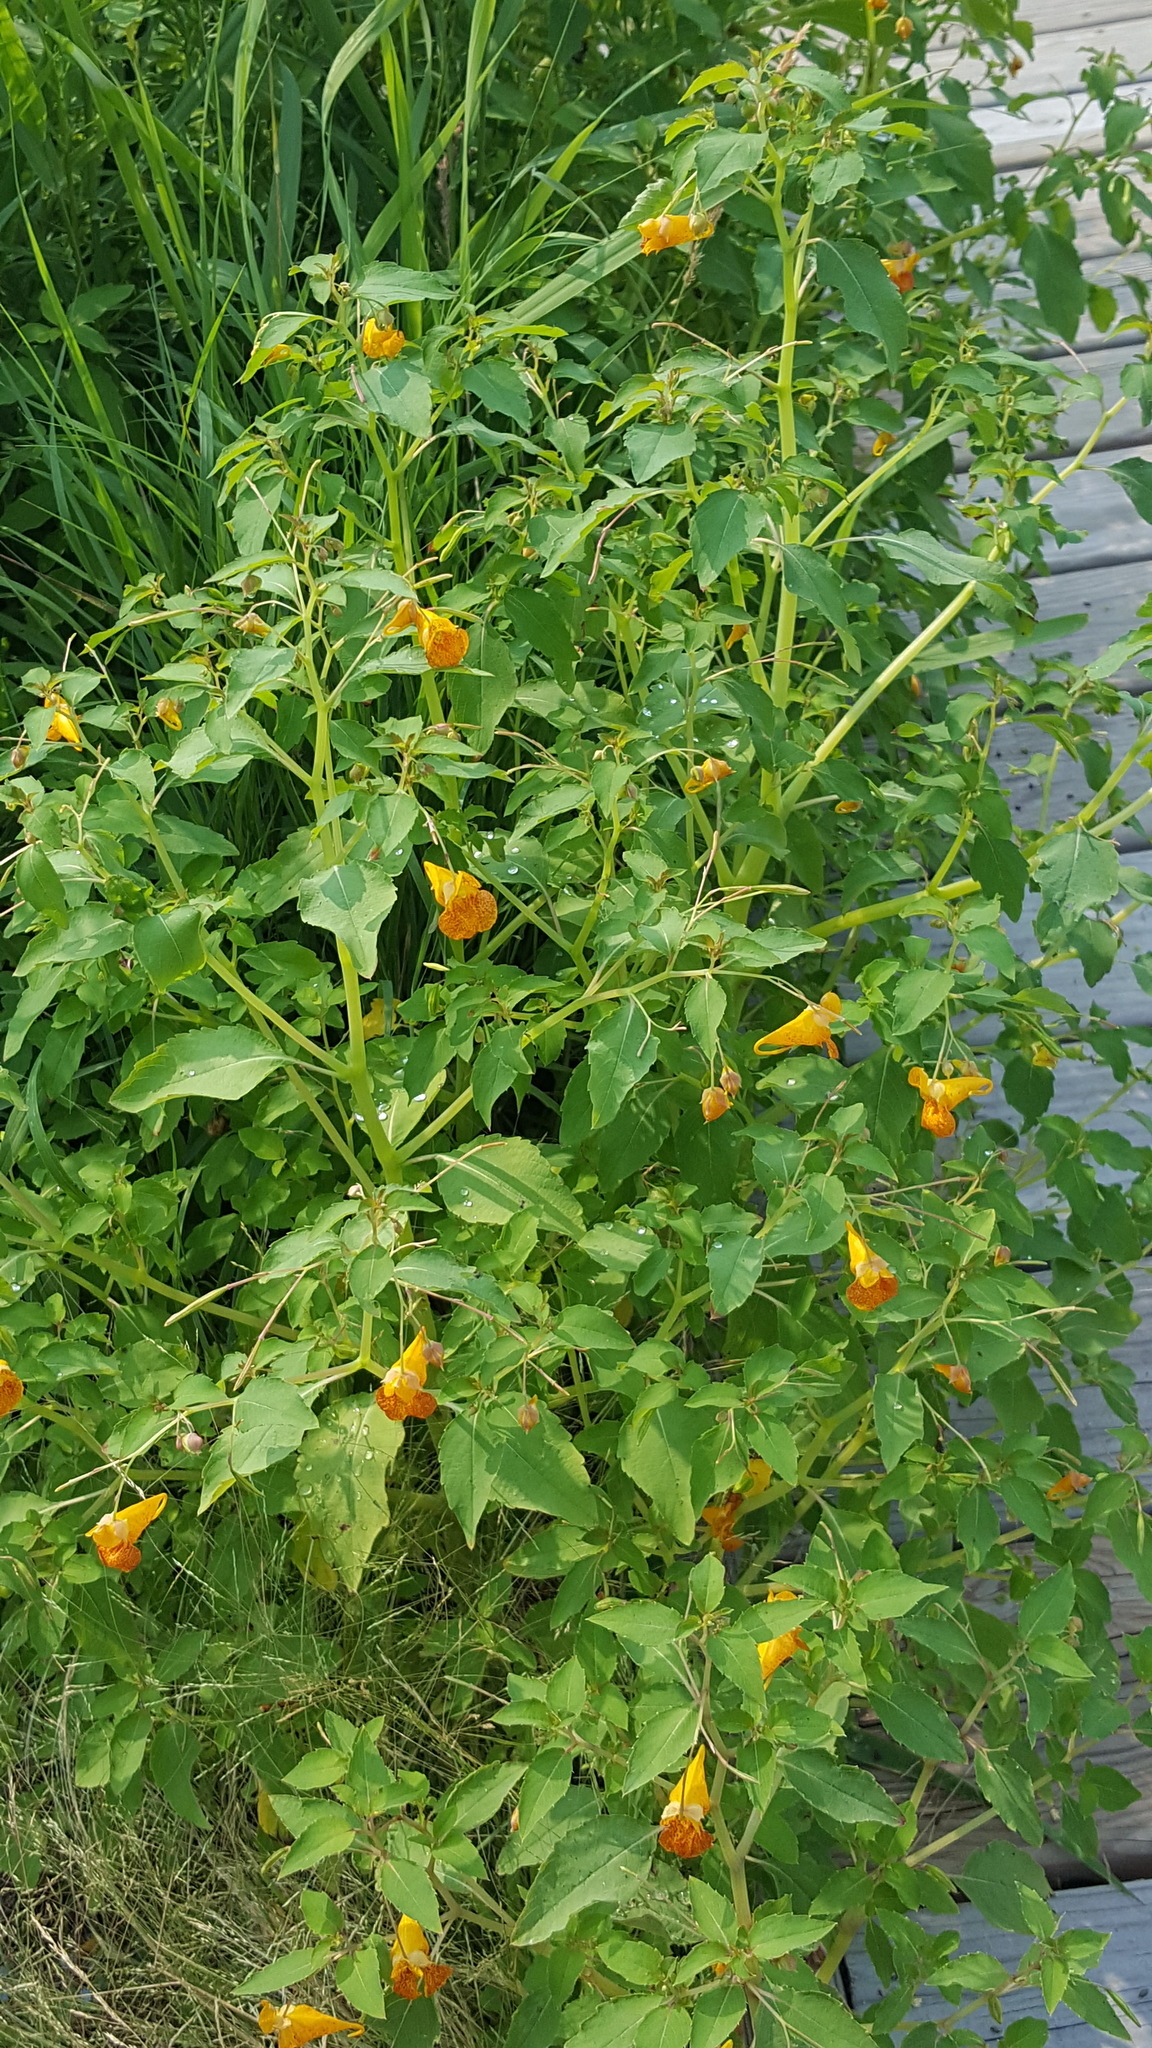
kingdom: Plantae
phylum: Tracheophyta
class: Magnoliopsida
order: Ericales
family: Balsaminaceae
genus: Impatiens
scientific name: Impatiens capensis
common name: Orange balsam
